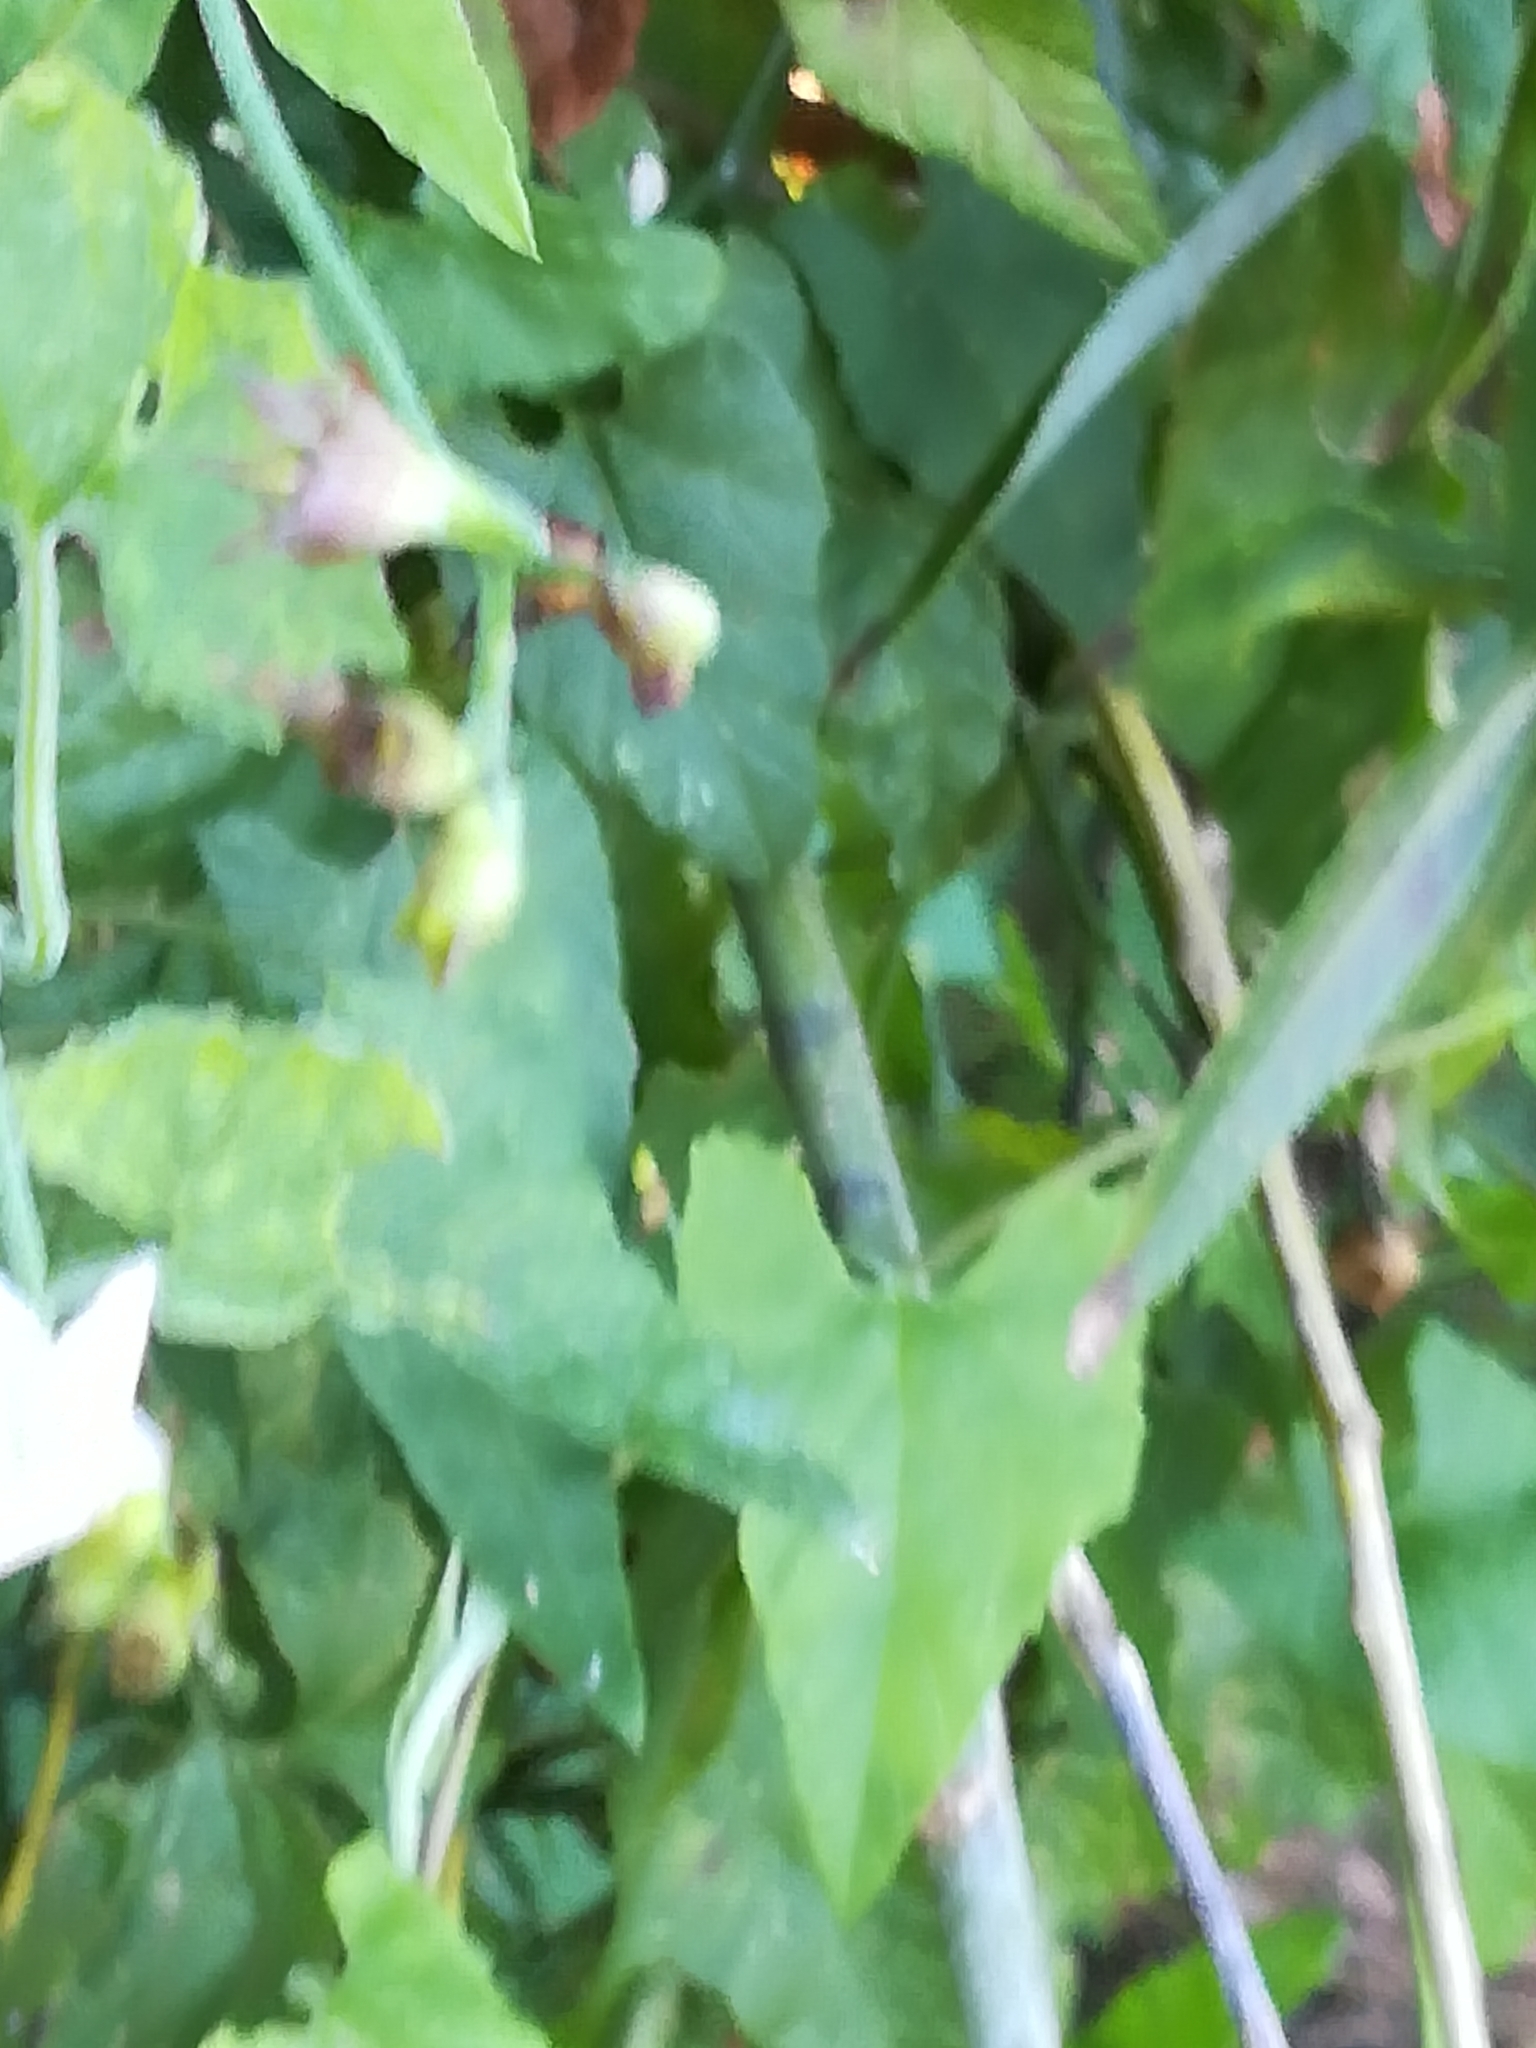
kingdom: Plantae
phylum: Tracheophyta
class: Magnoliopsida
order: Solanales
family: Convolvulaceae
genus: Convolvulus
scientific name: Convolvulus farinosus
